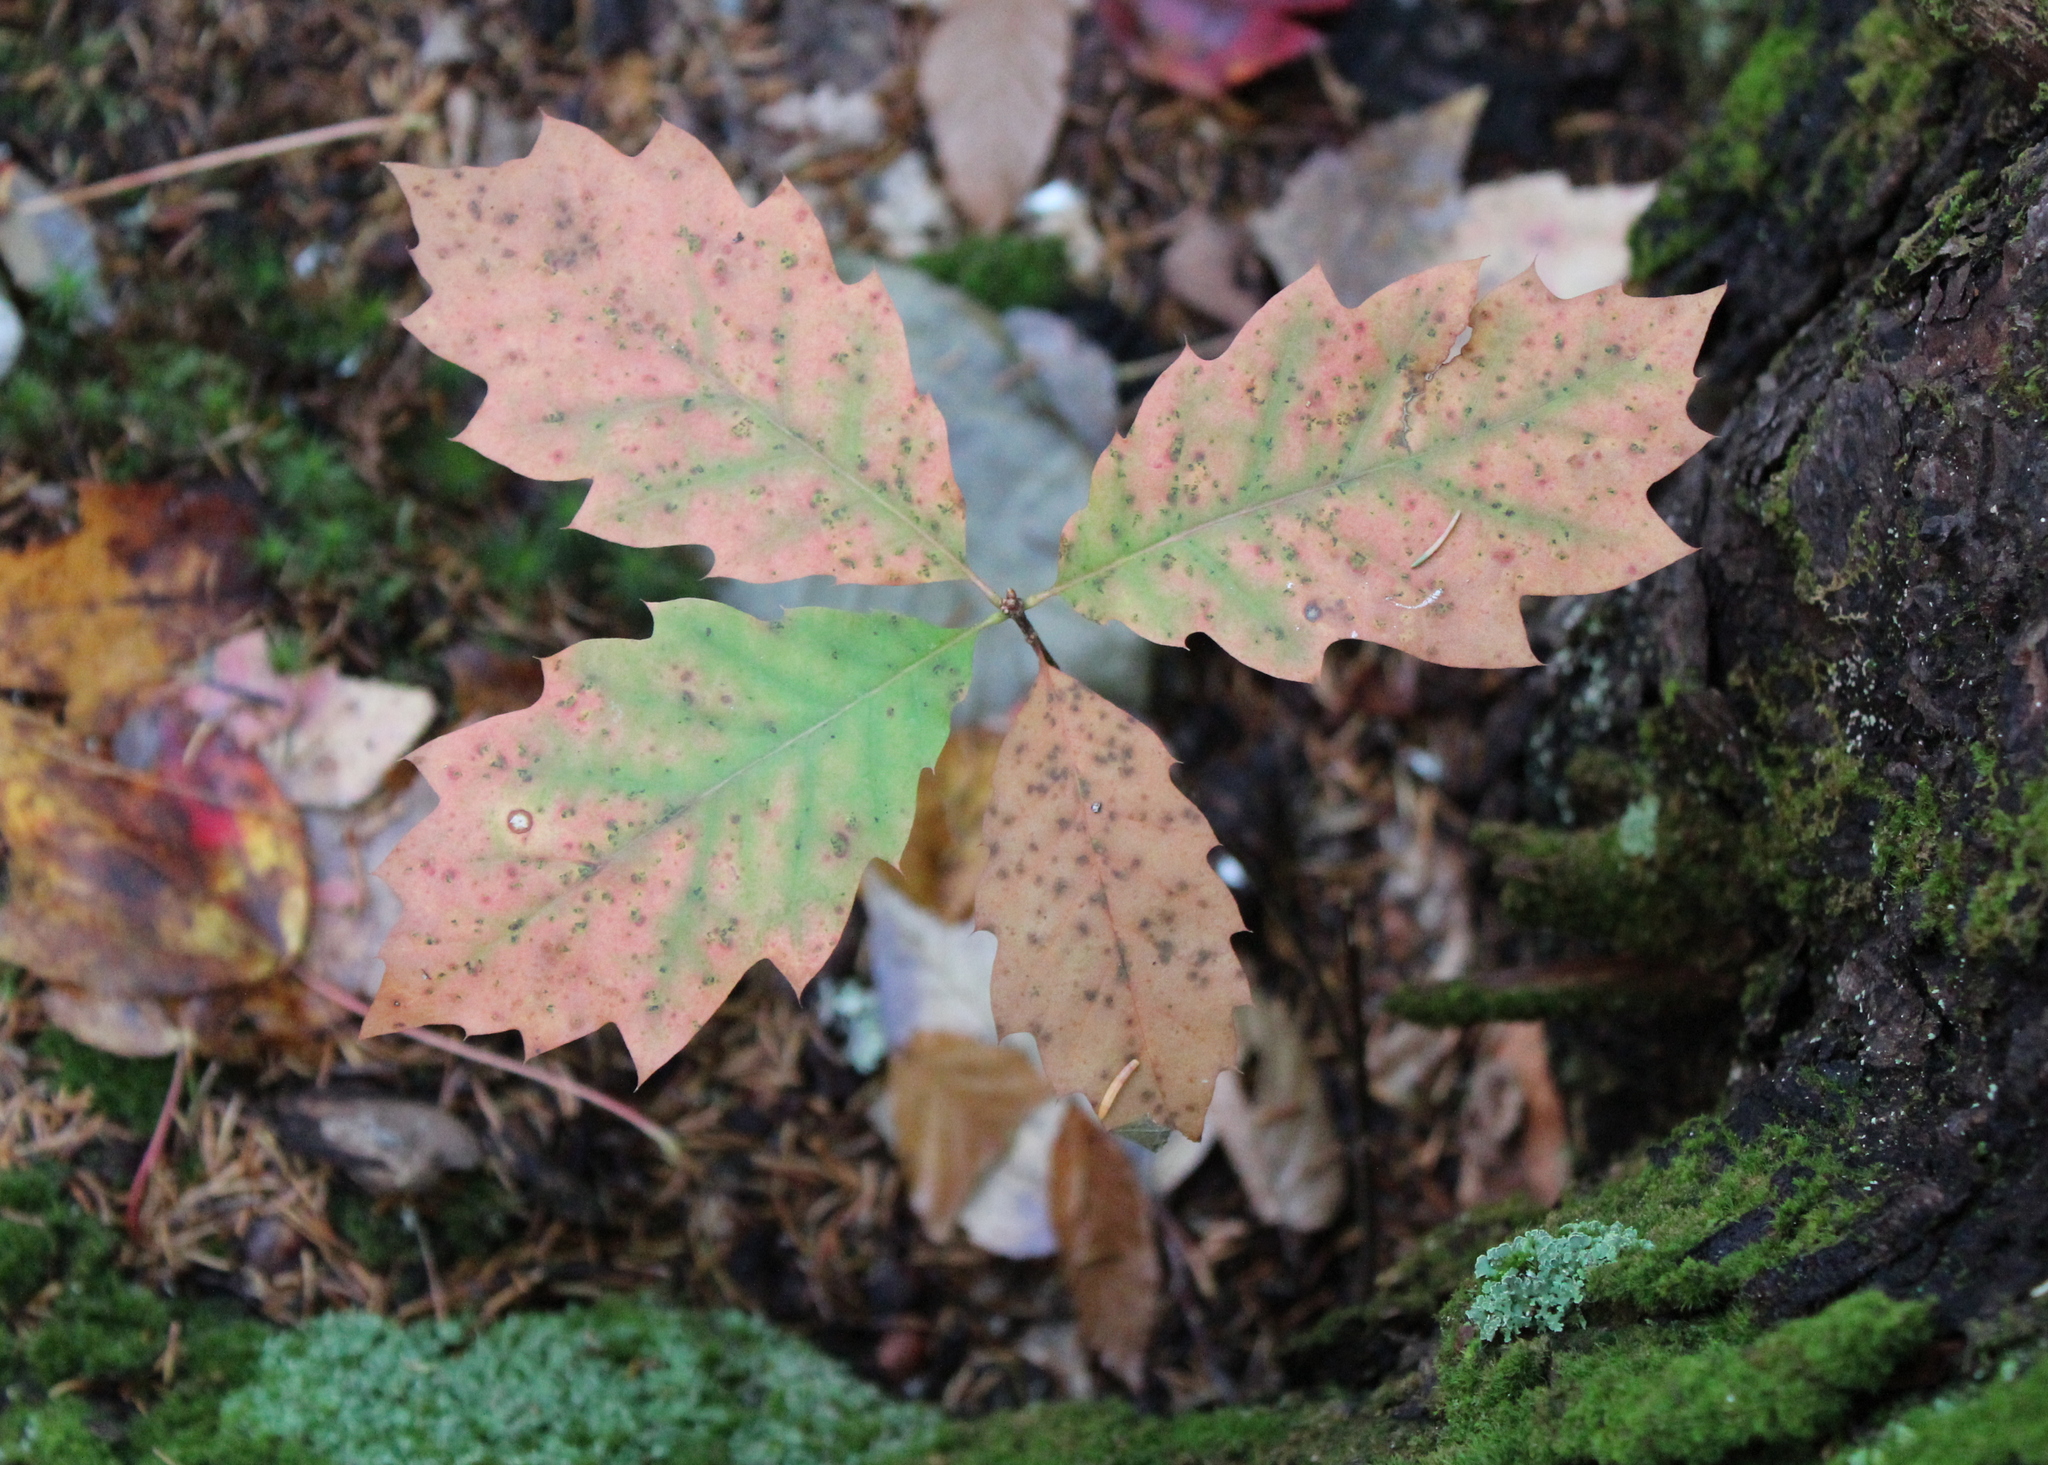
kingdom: Plantae
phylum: Tracheophyta
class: Magnoliopsida
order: Fagales
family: Fagaceae
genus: Quercus
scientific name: Quercus rubra
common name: Red oak
